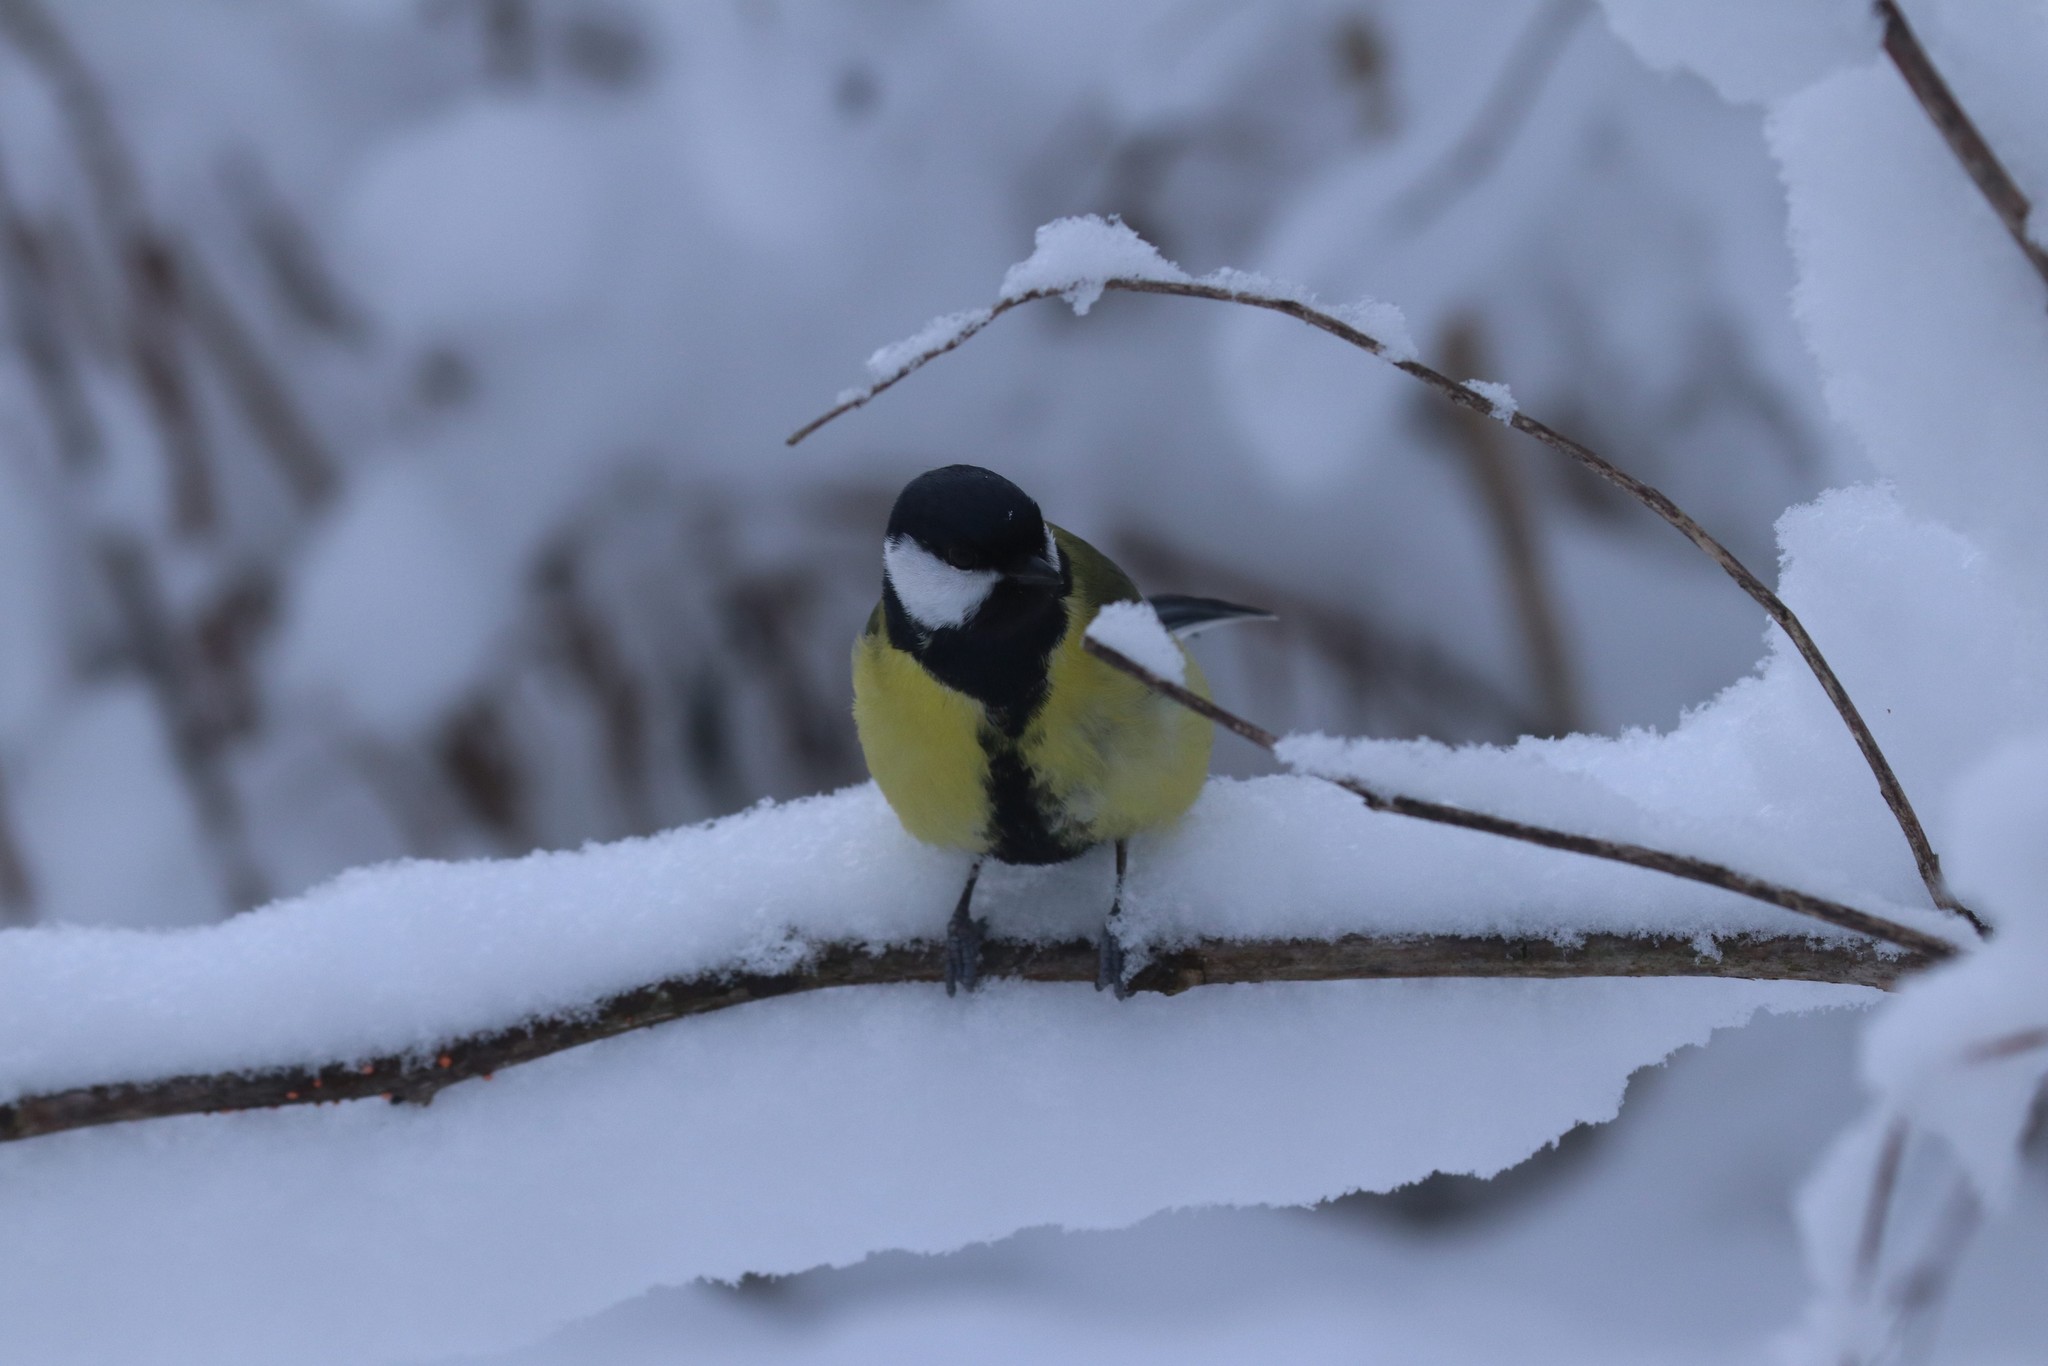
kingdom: Animalia
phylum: Chordata
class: Aves
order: Passeriformes
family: Paridae
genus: Parus
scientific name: Parus major
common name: Great tit
